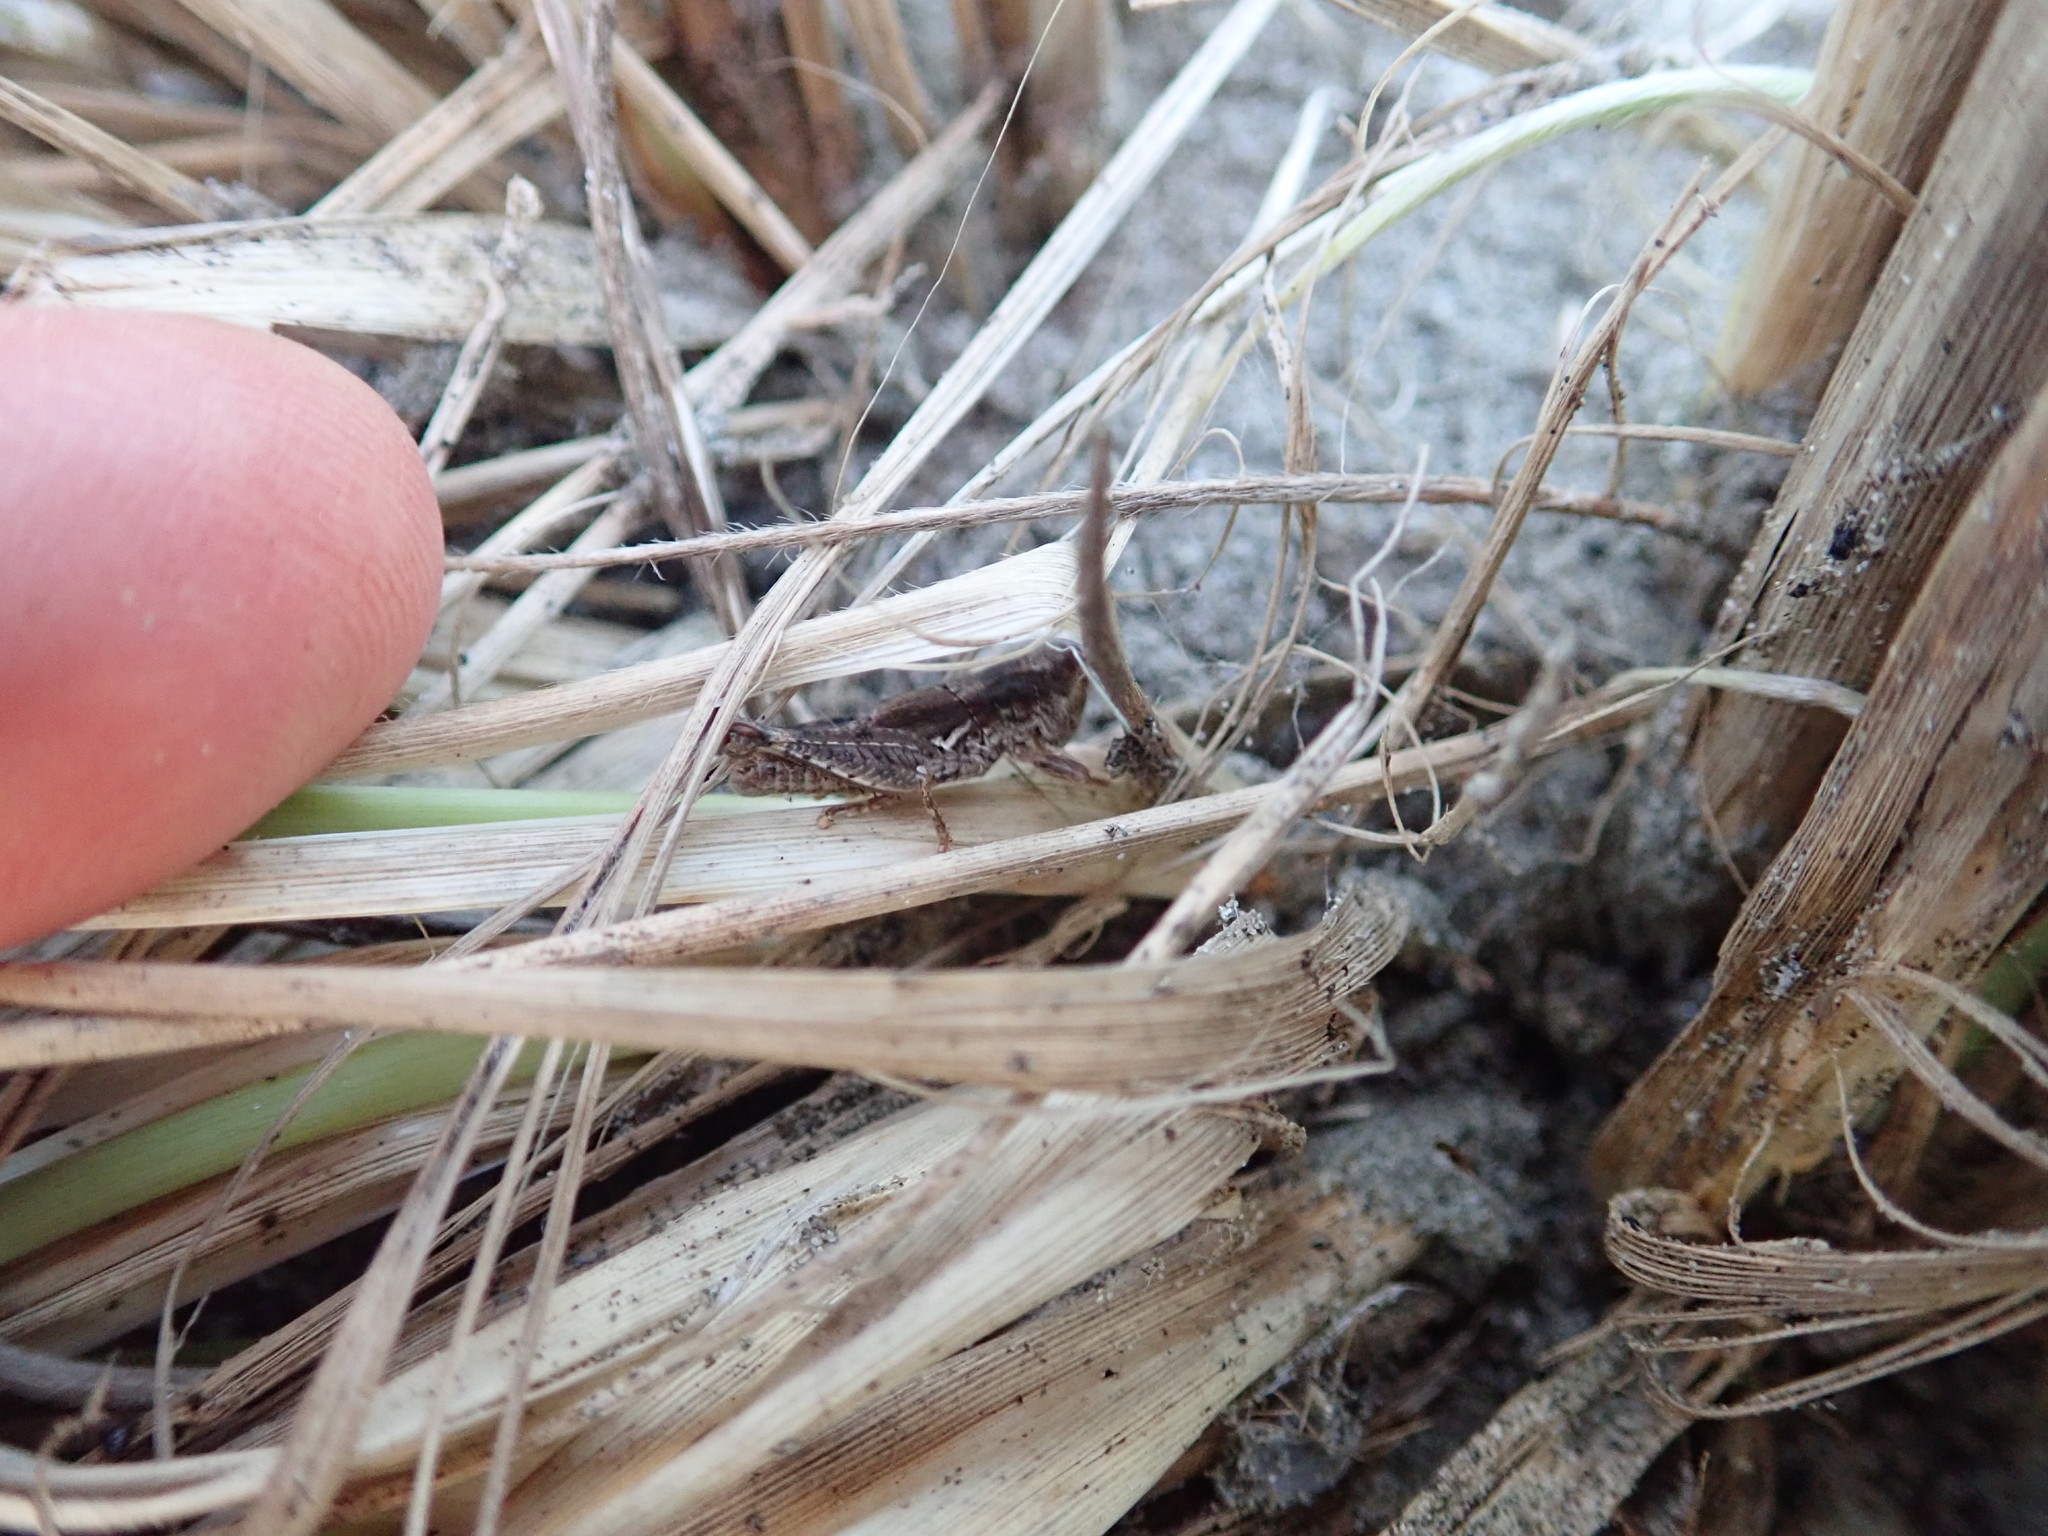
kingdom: Animalia
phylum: Arthropoda
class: Insecta
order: Orthoptera
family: Acrididae
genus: Phaulacridium
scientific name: Phaulacridium marginale
